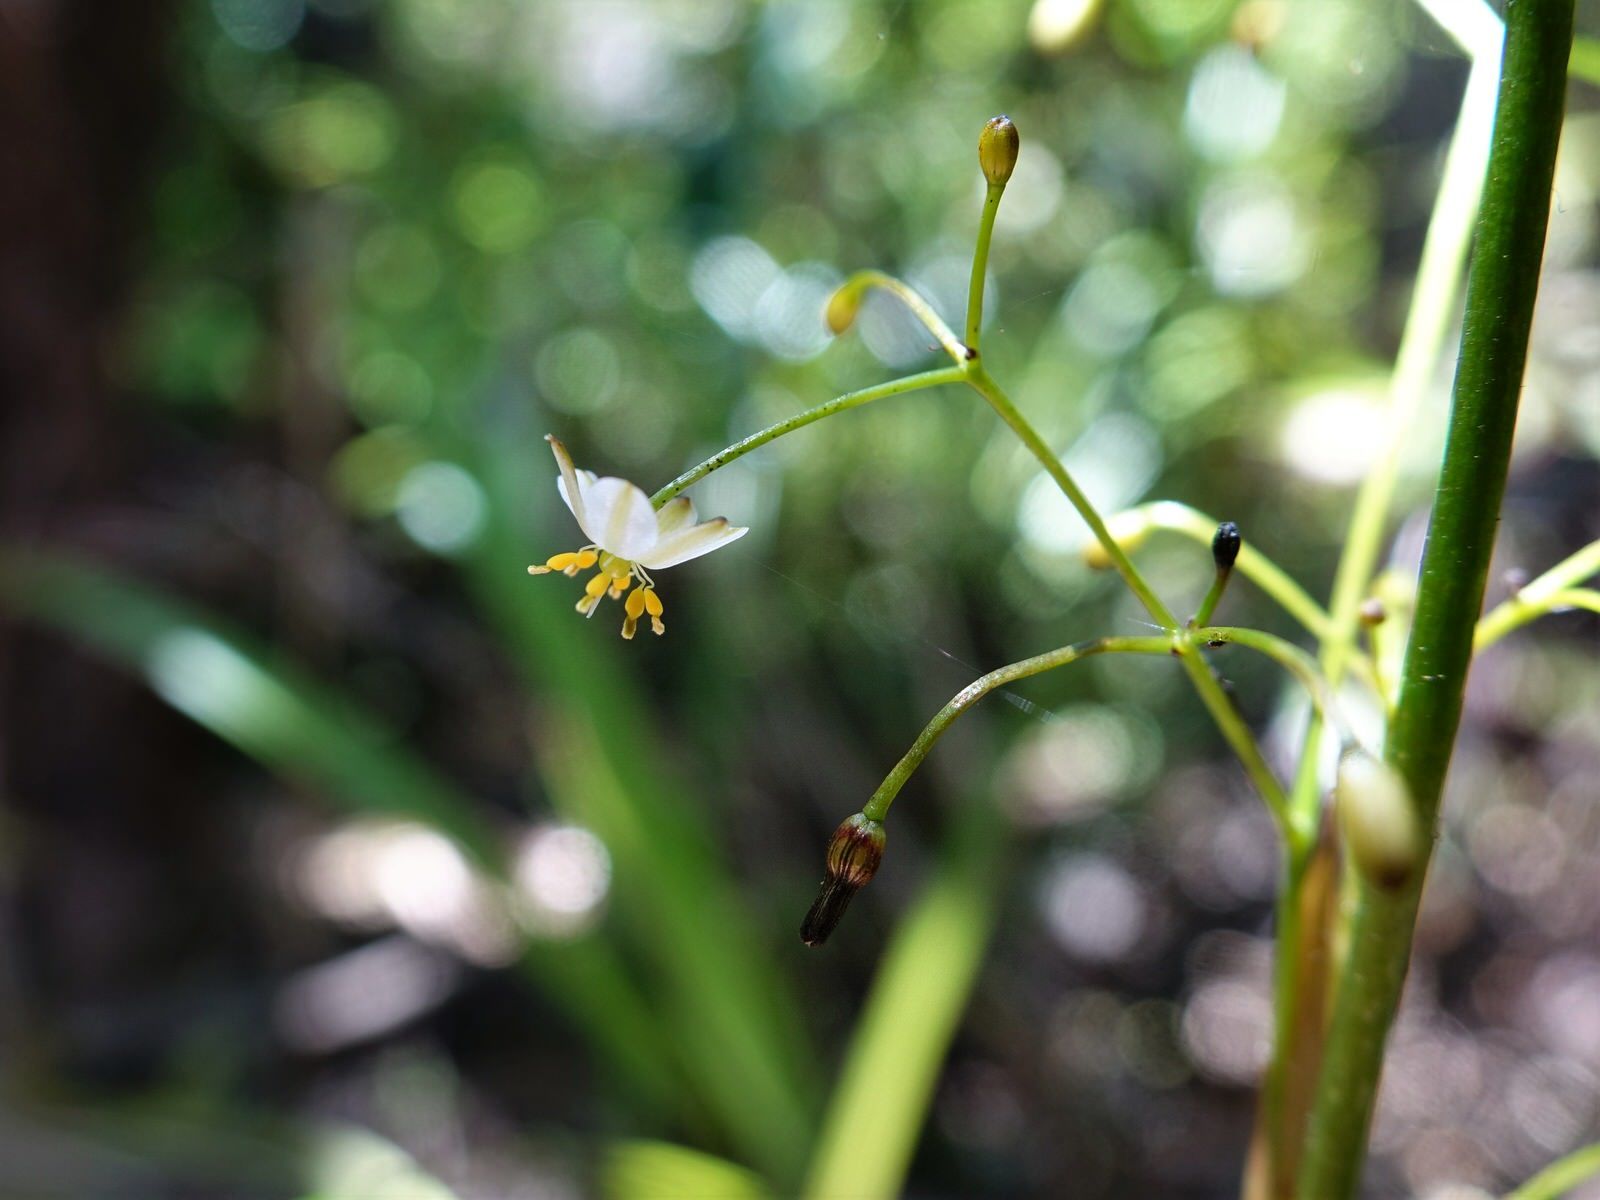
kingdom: Plantae
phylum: Tracheophyta
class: Liliopsida
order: Asparagales
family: Asphodelaceae
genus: Dianella
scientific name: Dianella nigra
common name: New zealand-blueberry
